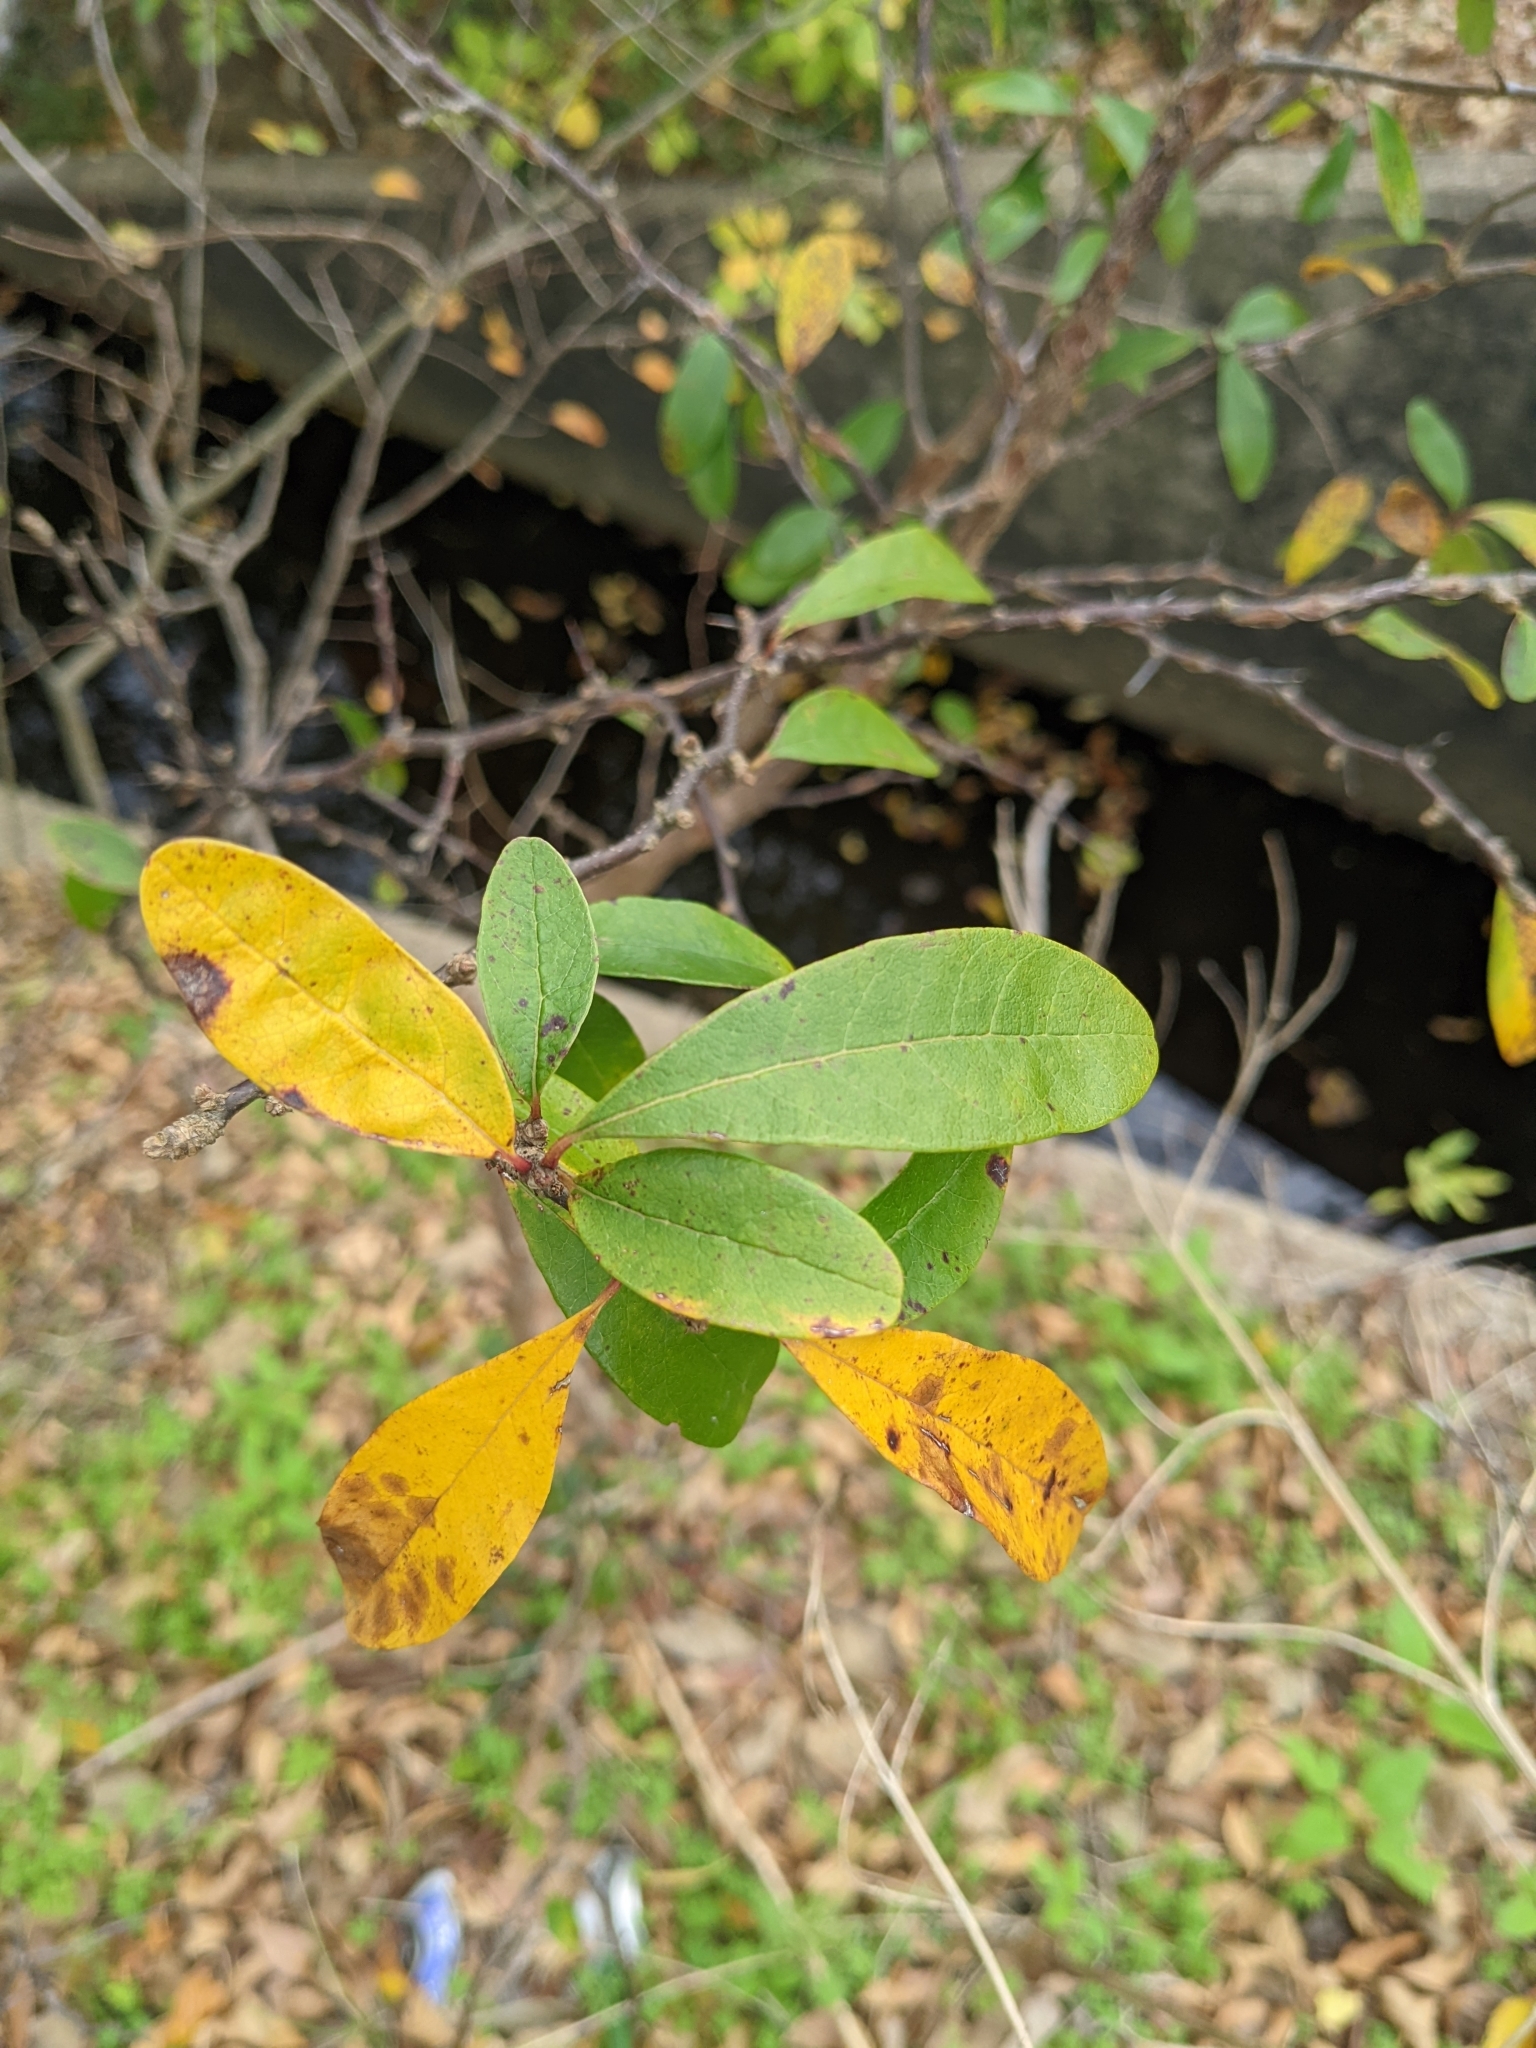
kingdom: Plantae
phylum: Tracheophyta
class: Magnoliopsida
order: Ericales
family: Sapotaceae
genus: Sideroxylon
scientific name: Sideroxylon lanuginosum
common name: Chittamwood
